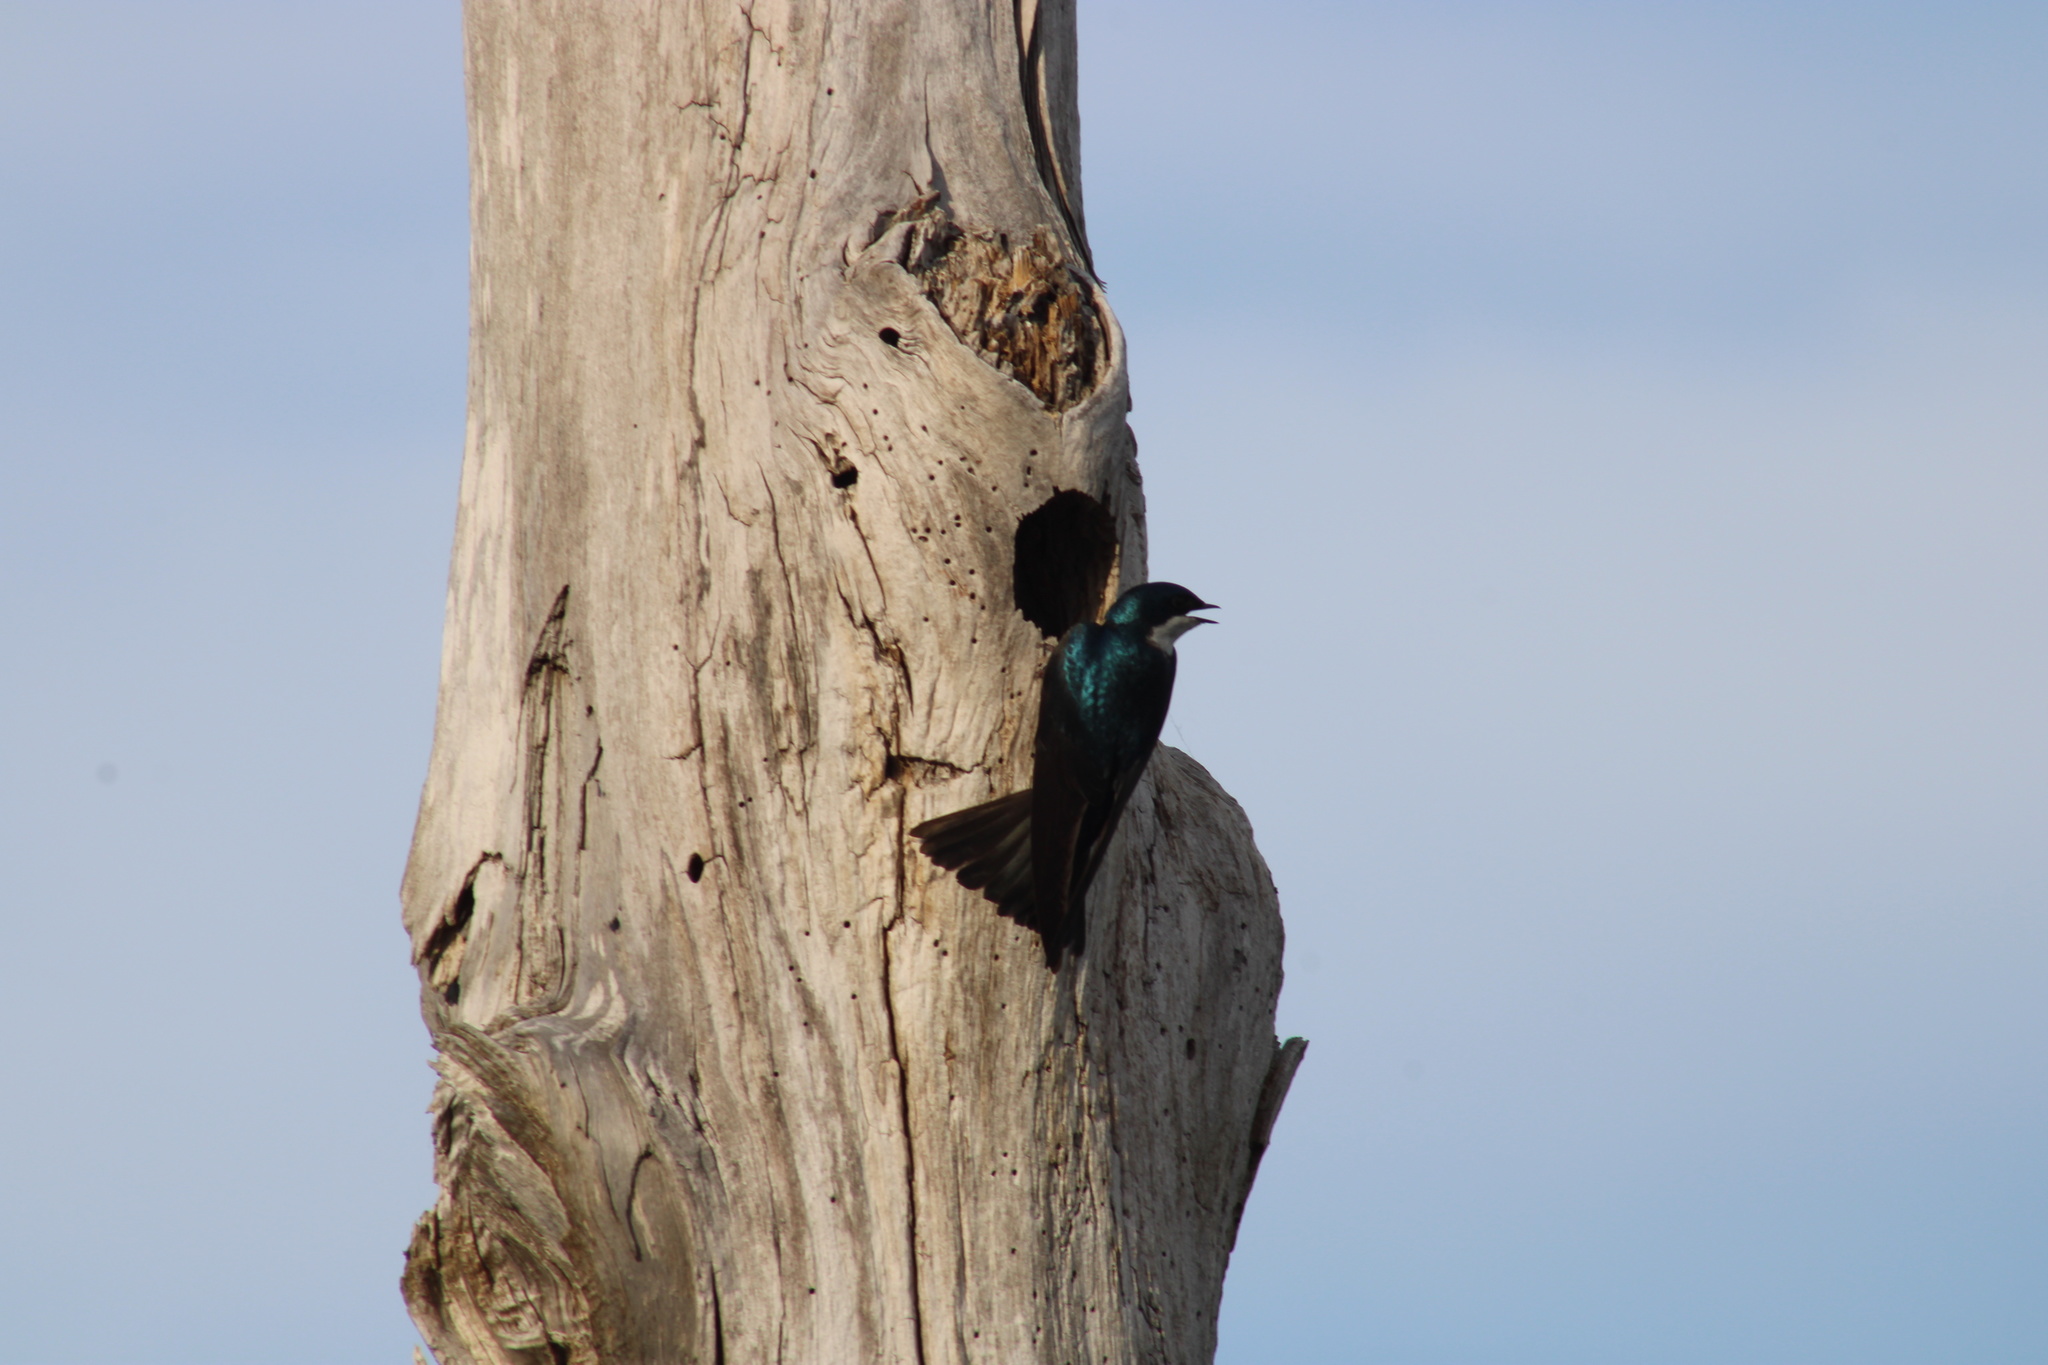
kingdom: Animalia
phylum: Chordata
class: Aves
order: Passeriformes
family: Hirundinidae
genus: Tachycineta
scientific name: Tachycineta bicolor
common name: Tree swallow
